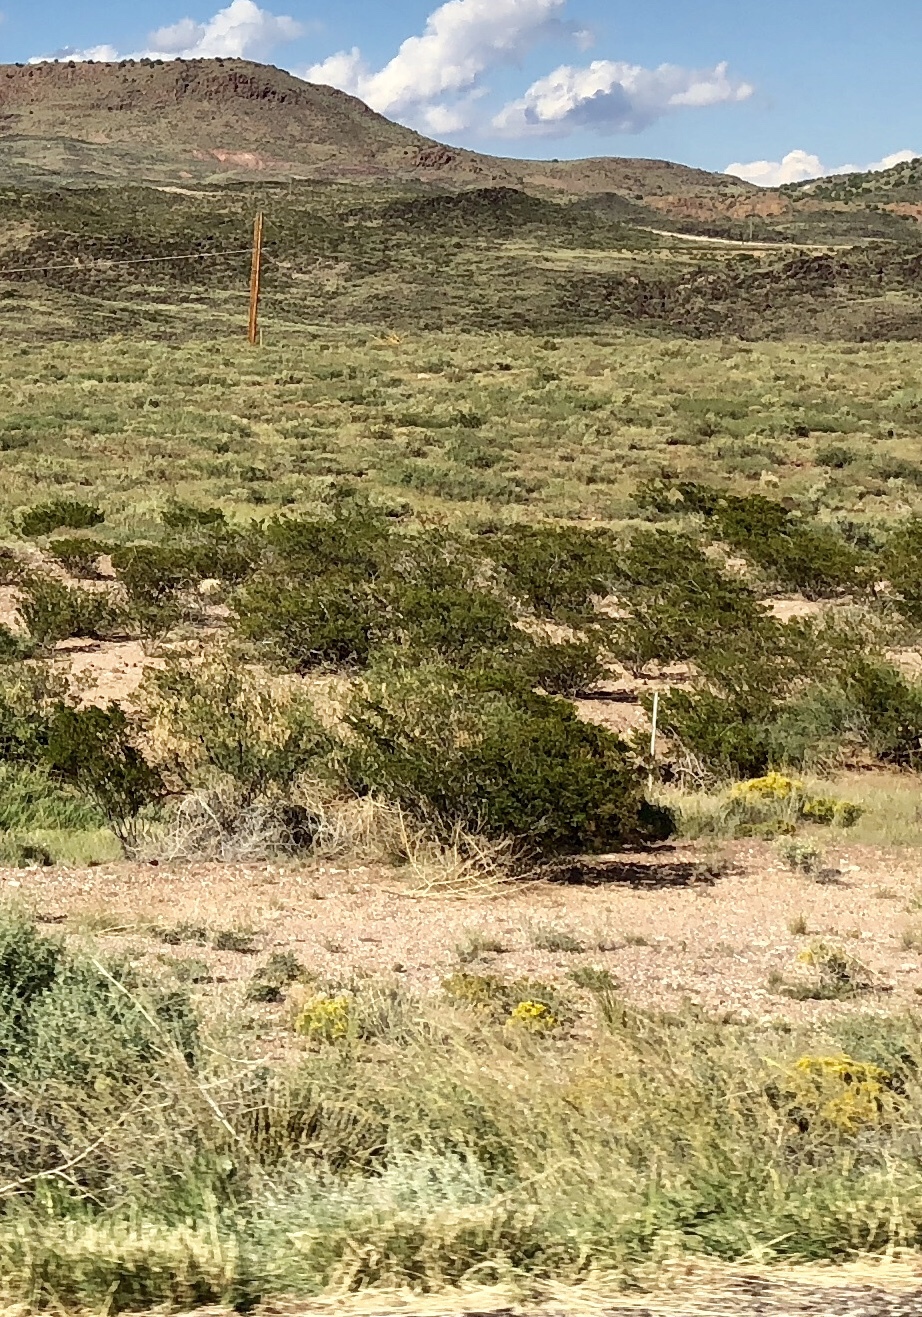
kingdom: Plantae
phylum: Tracheophyta
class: Magnoliopsida
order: Zygophyllales
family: Zygophyllaceae
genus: Larrea
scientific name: Larrea tridentata
